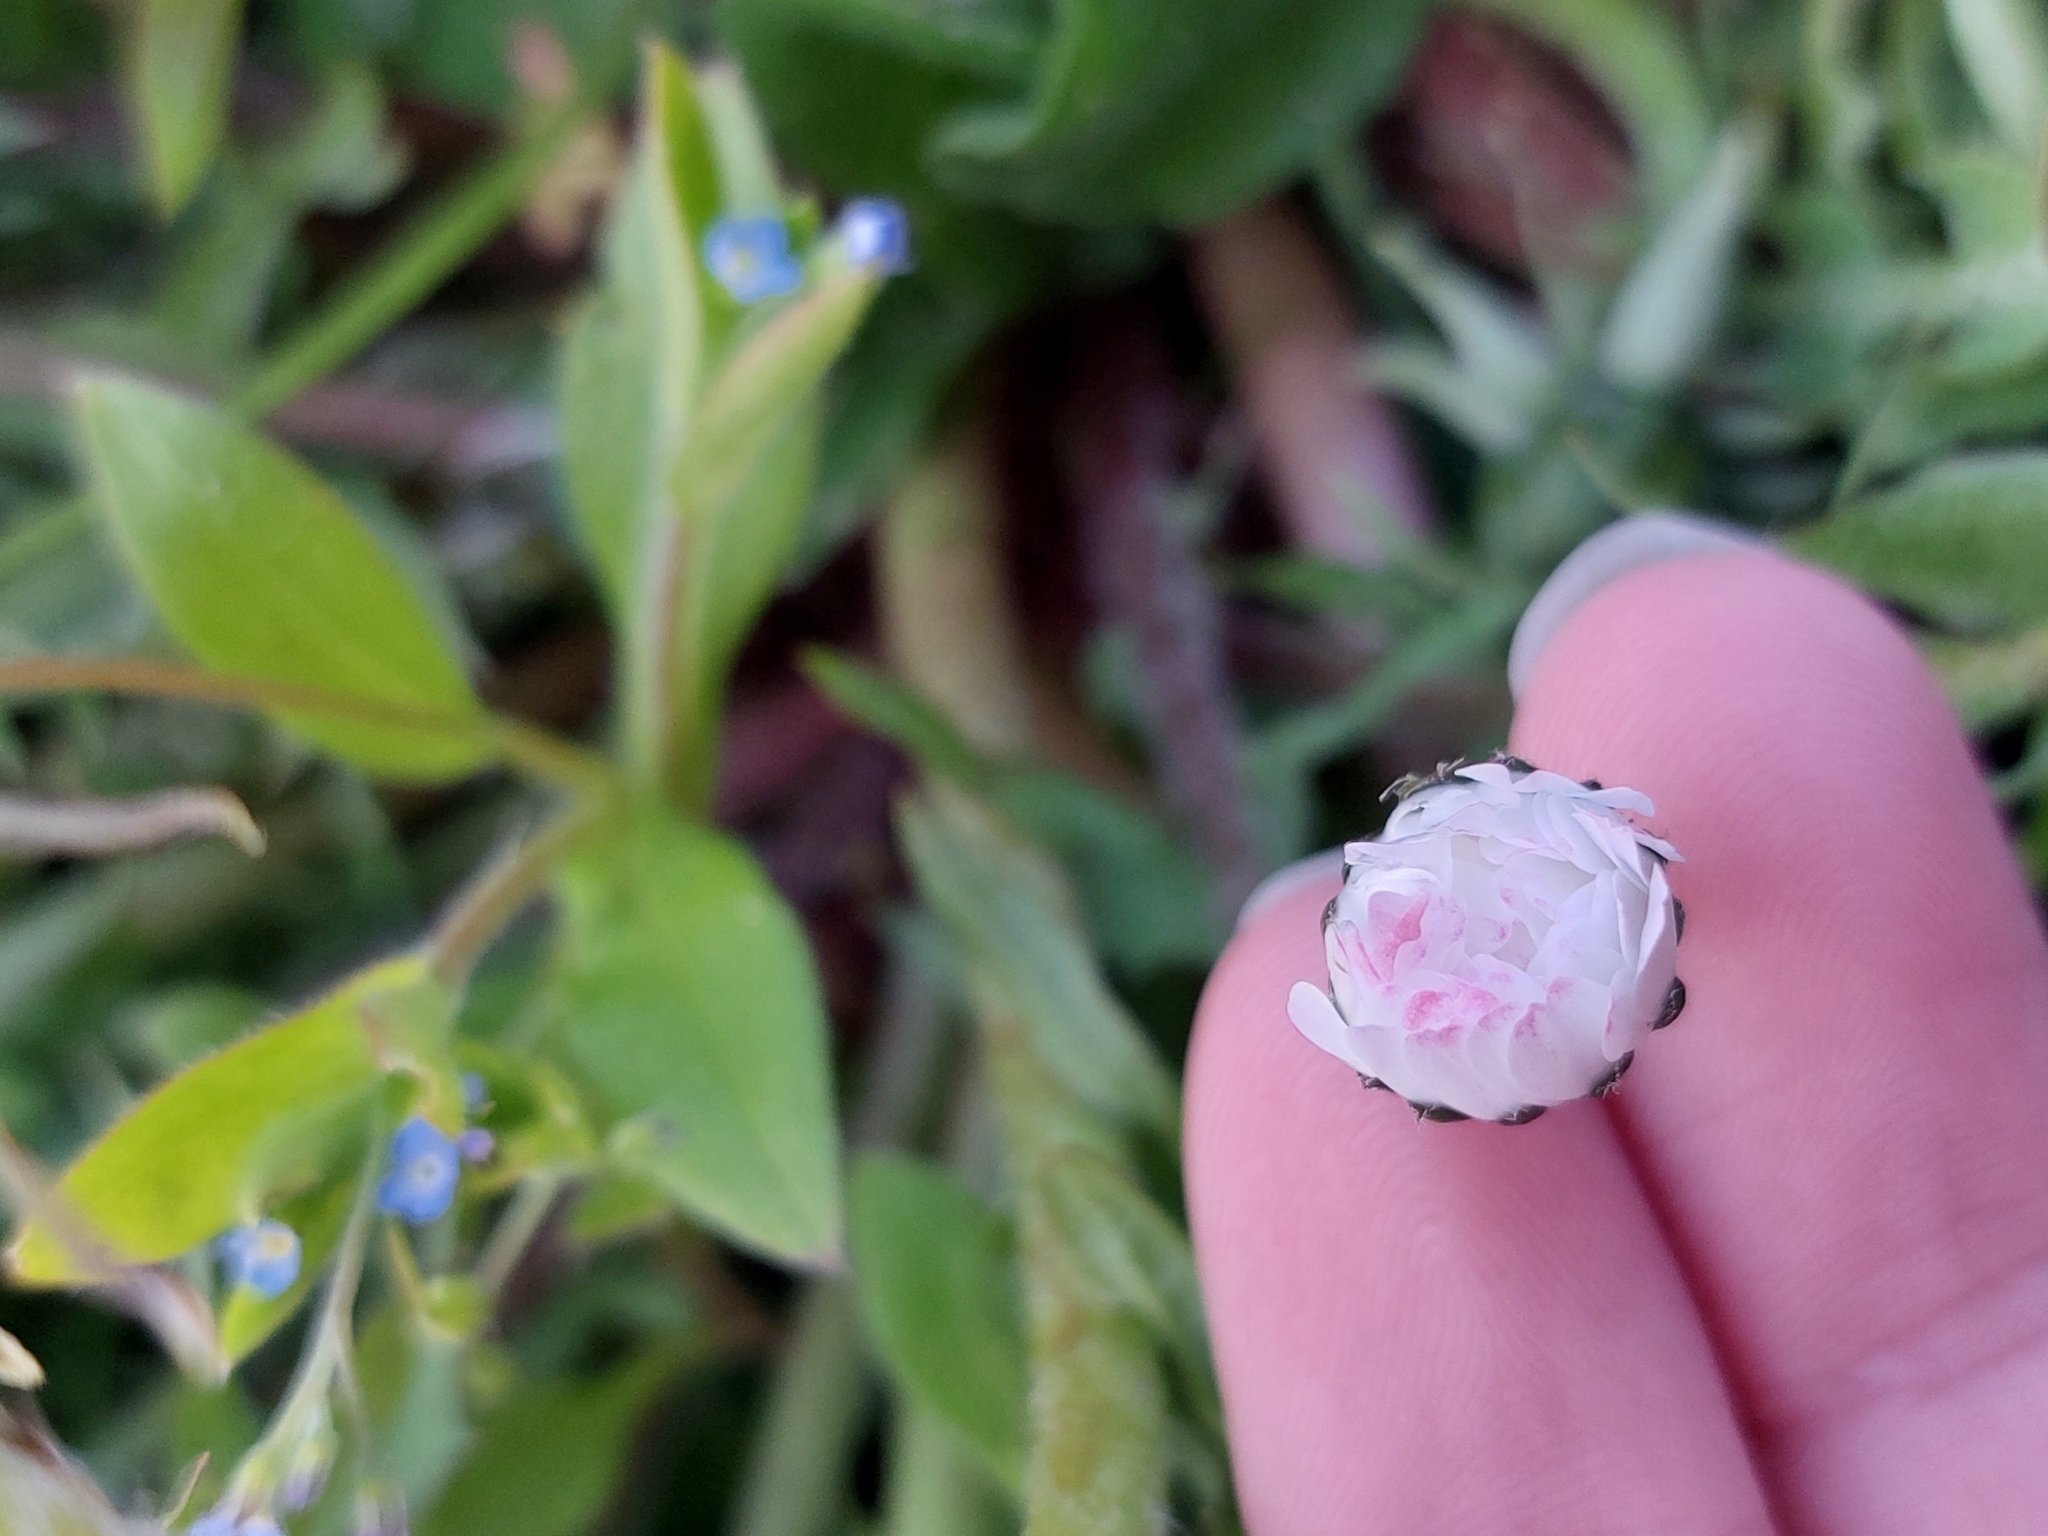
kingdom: Plantae
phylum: Tracheophyta
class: Magnoliopsida
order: Asterales
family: Asteraceae
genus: Bellis
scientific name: Bellis perennis
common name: Lawndaisy
